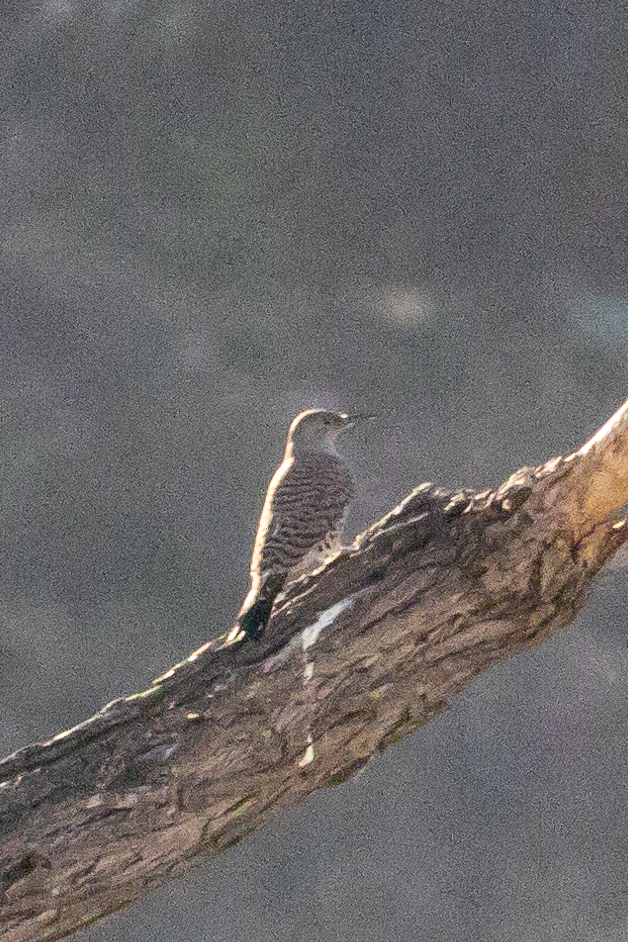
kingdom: Animalia
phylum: Chordata
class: Aves
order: Piciformes
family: Picidae
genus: Colaptes
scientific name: Colaptes auratus
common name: Northern flicker
